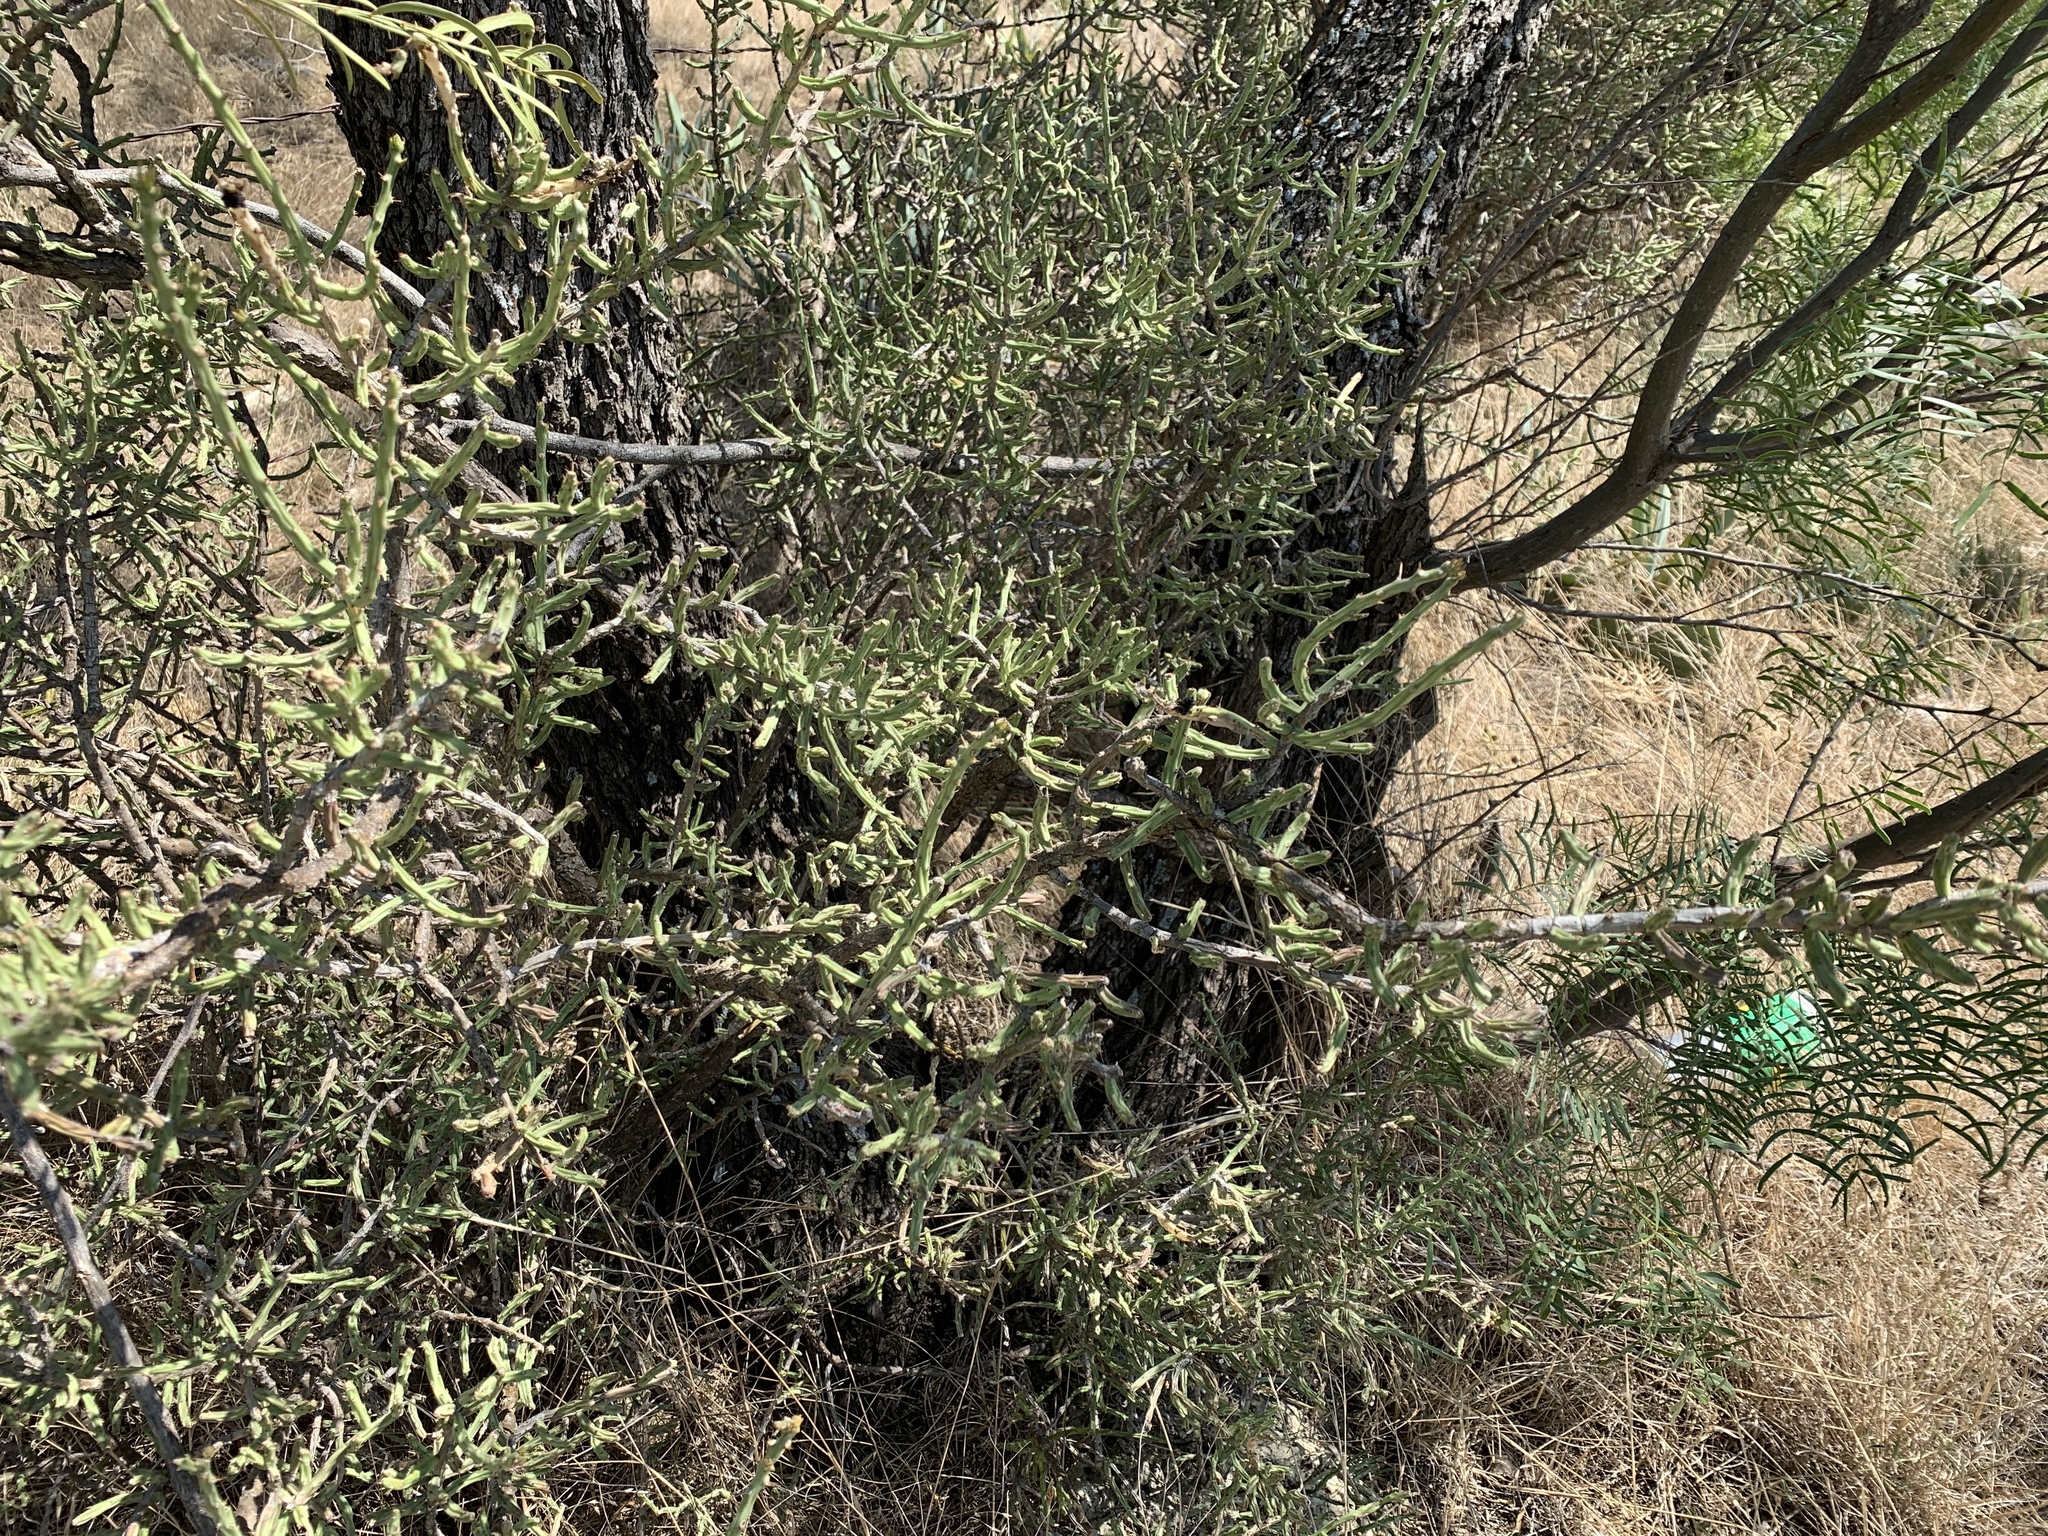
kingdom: Plantae
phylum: Tracheophyta
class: Magnoliopsida
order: Caryophyllales
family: Cactaceae
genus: Cylindropuntia
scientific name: Cylindropuntia leptocaulis
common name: Christmas cactus
